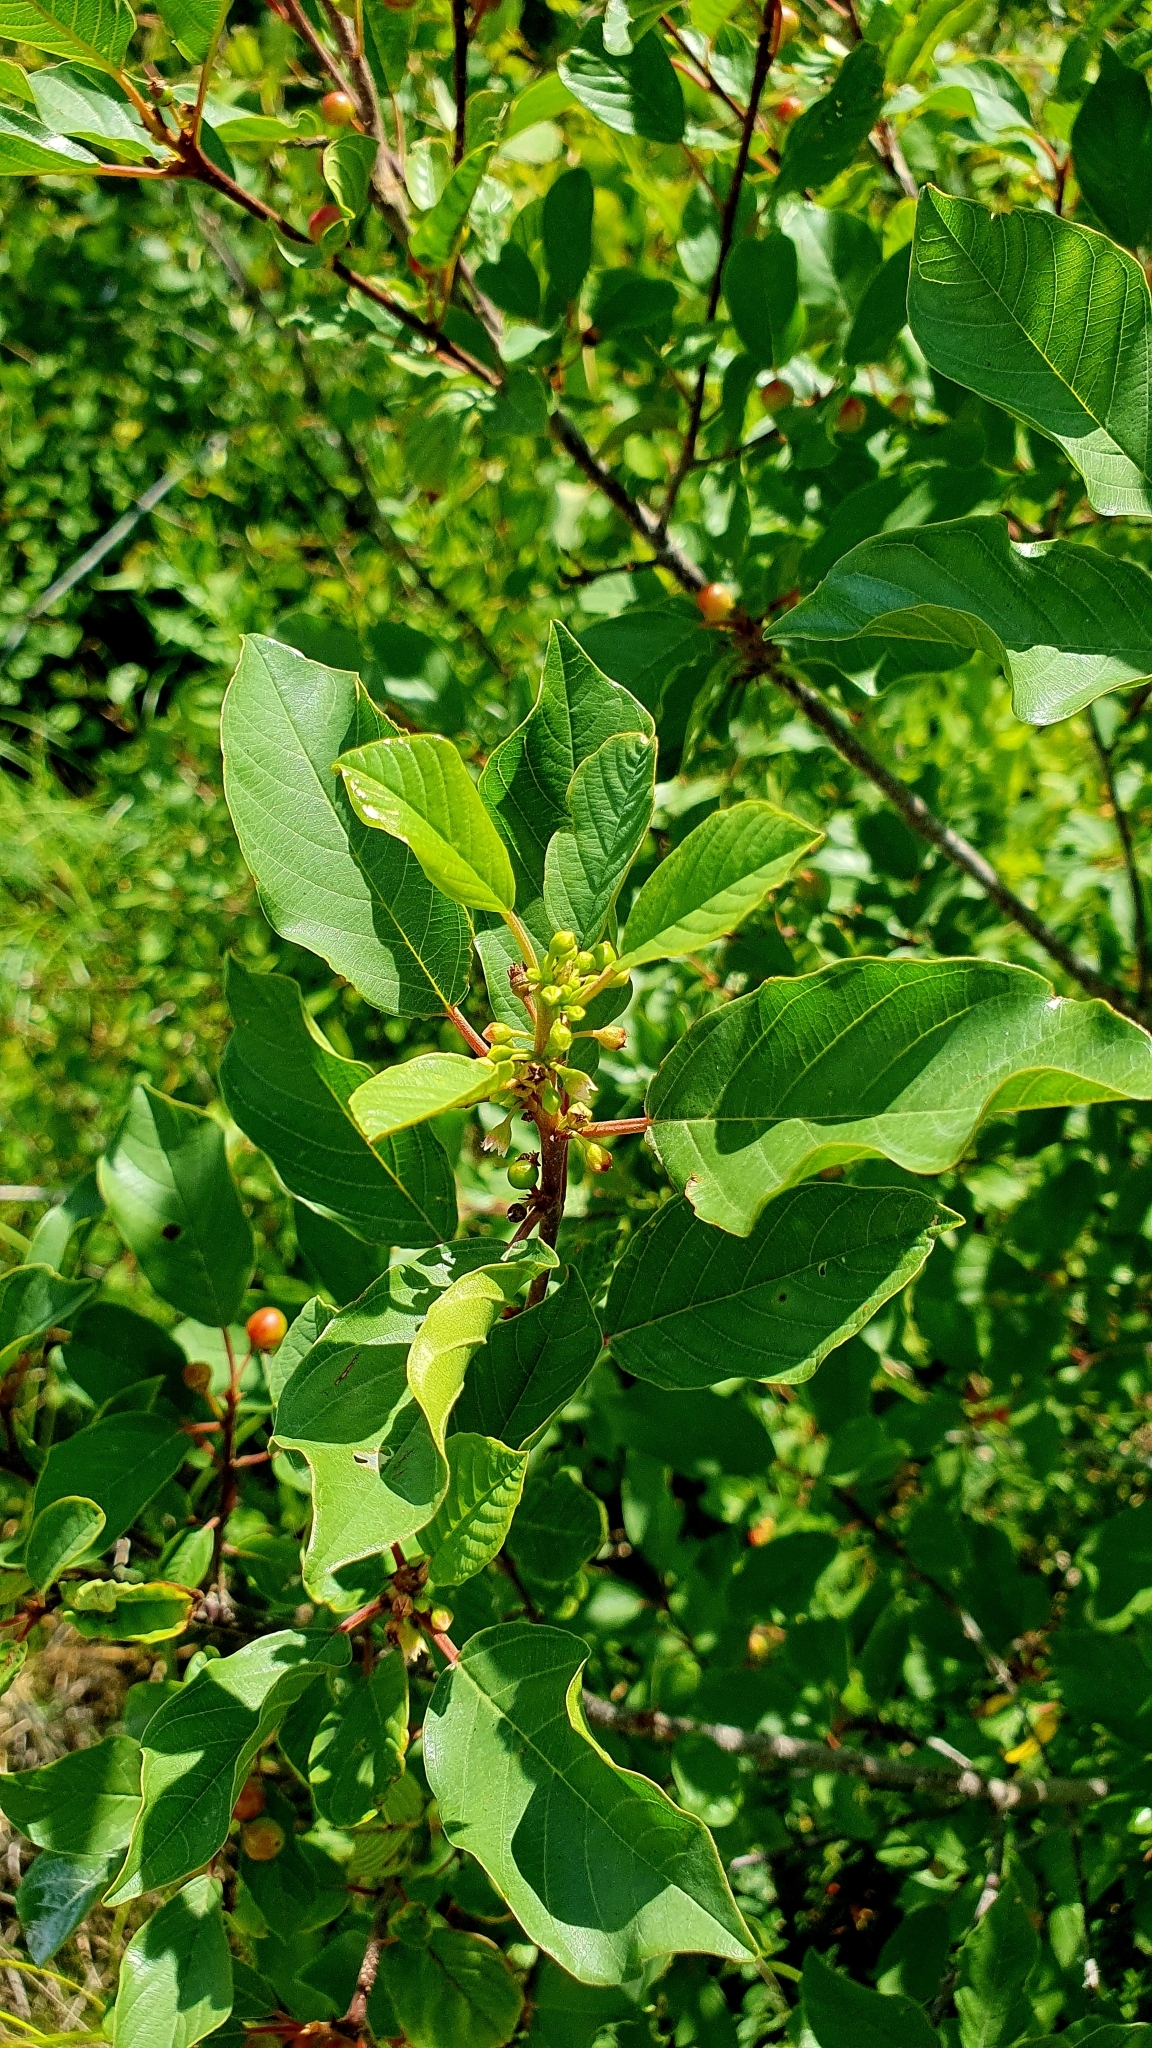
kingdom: Plantae
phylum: Tracheophyta
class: Magnoliopsida
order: Rosales
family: Rhamnaceae
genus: Frangula
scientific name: Frangula alnus
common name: Alder buckthorn
